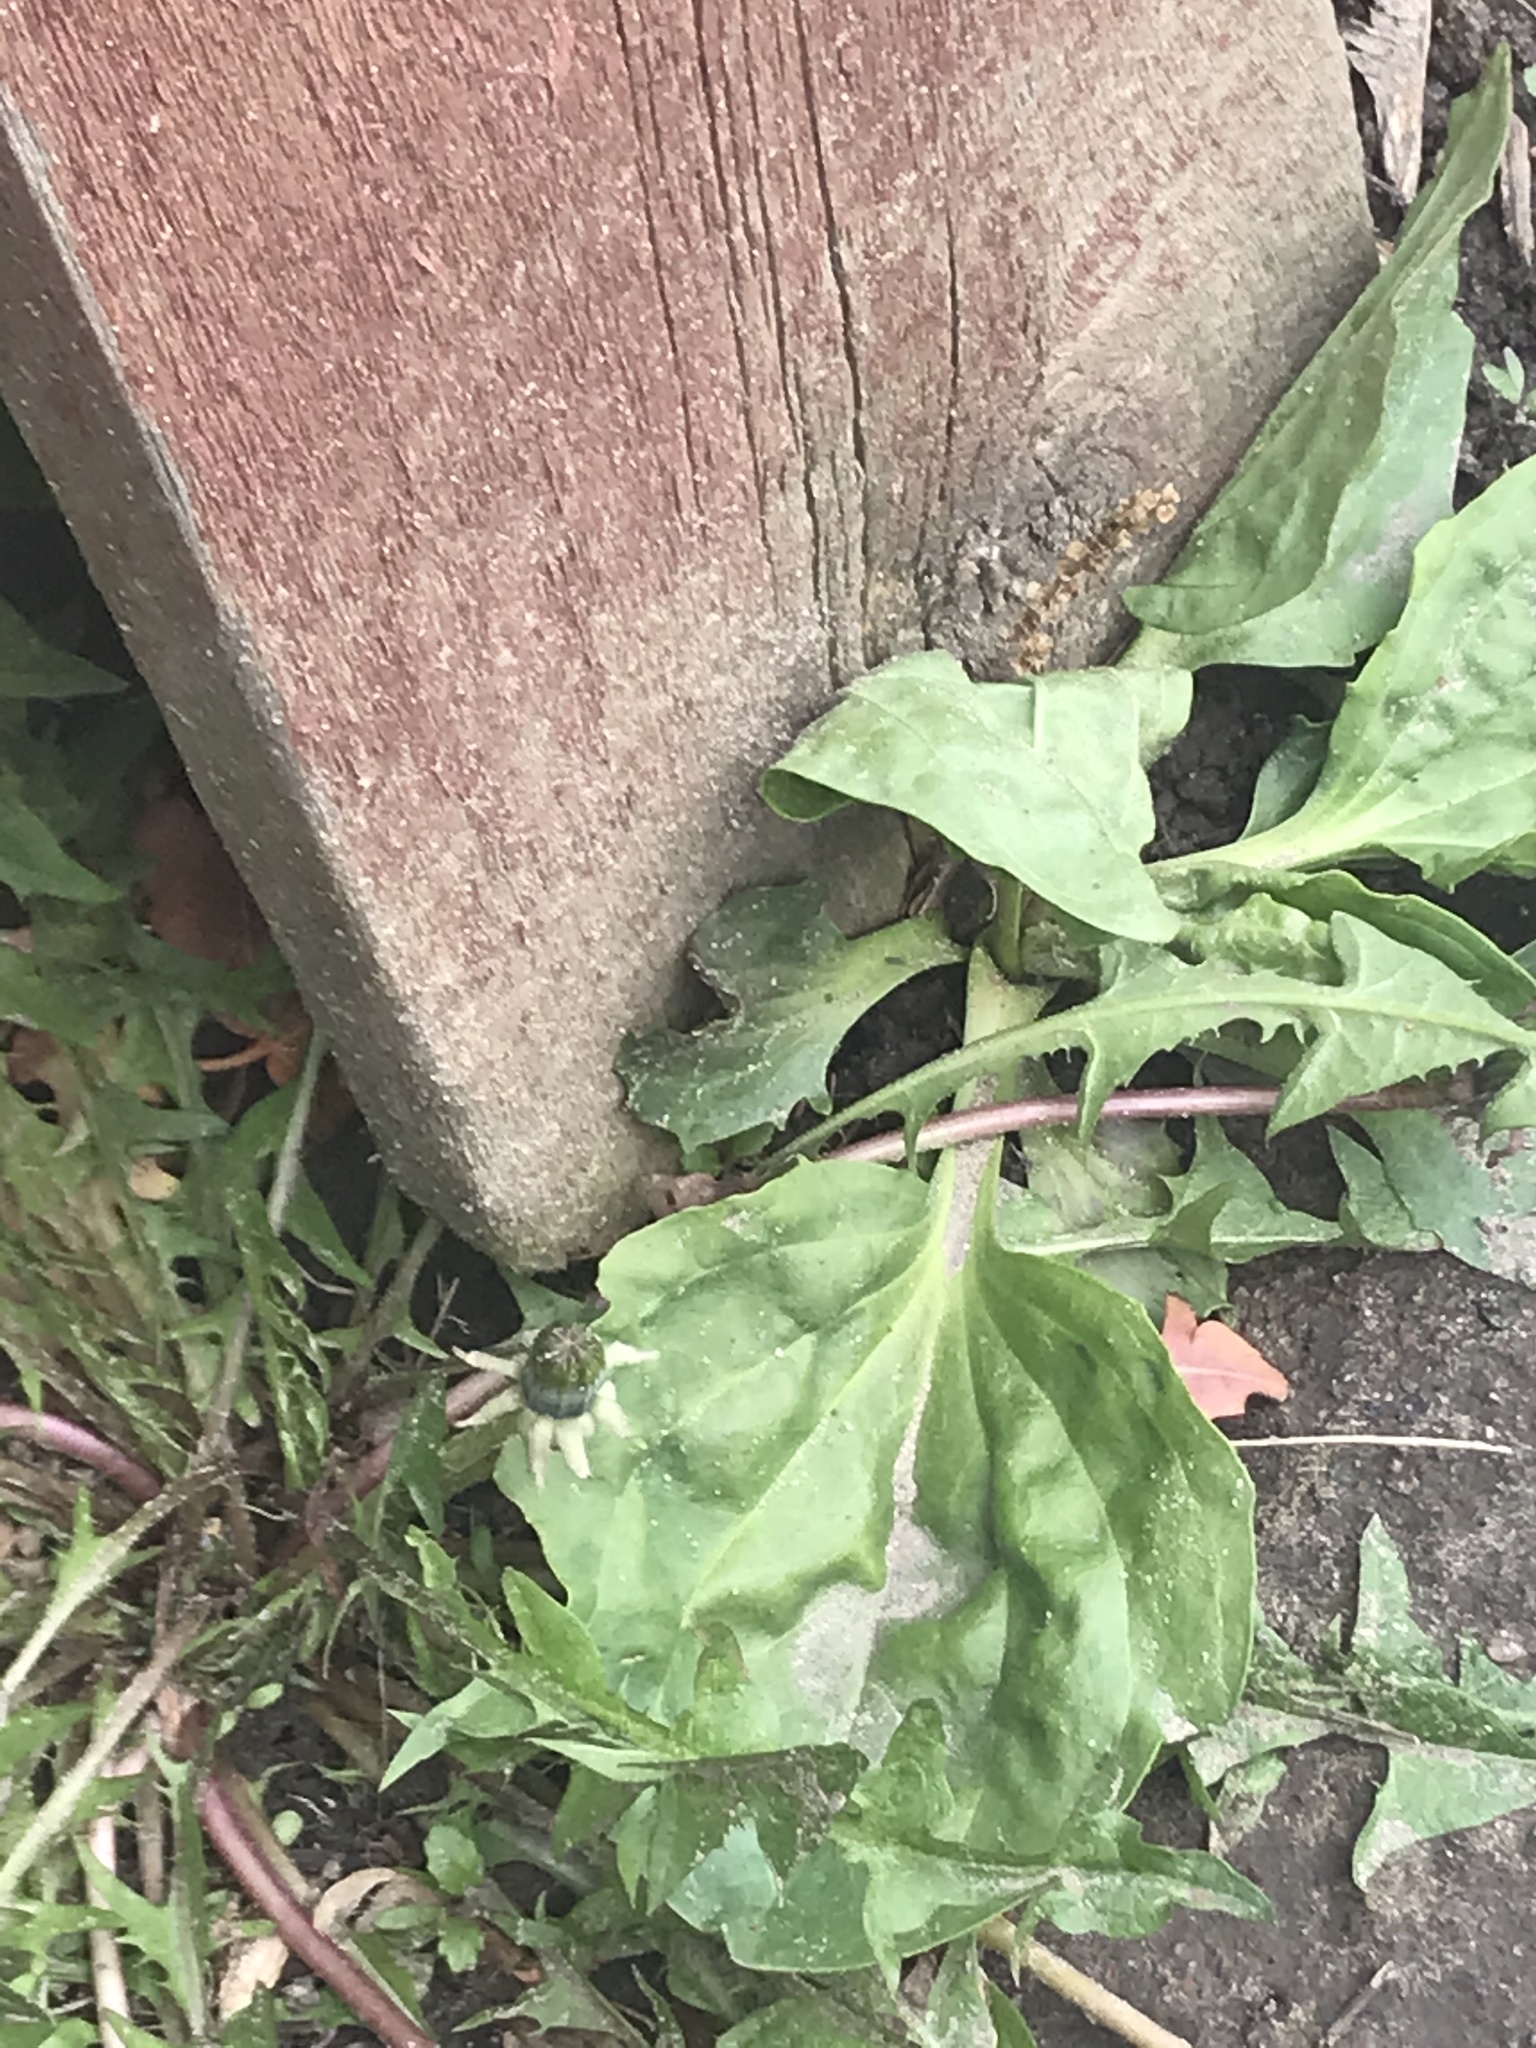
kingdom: Plantae
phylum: Tracheophyta
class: Magnoliopsida
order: Lamiales
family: Plantaginaceae
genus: Plantago
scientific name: Plantago major
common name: Common plantain
